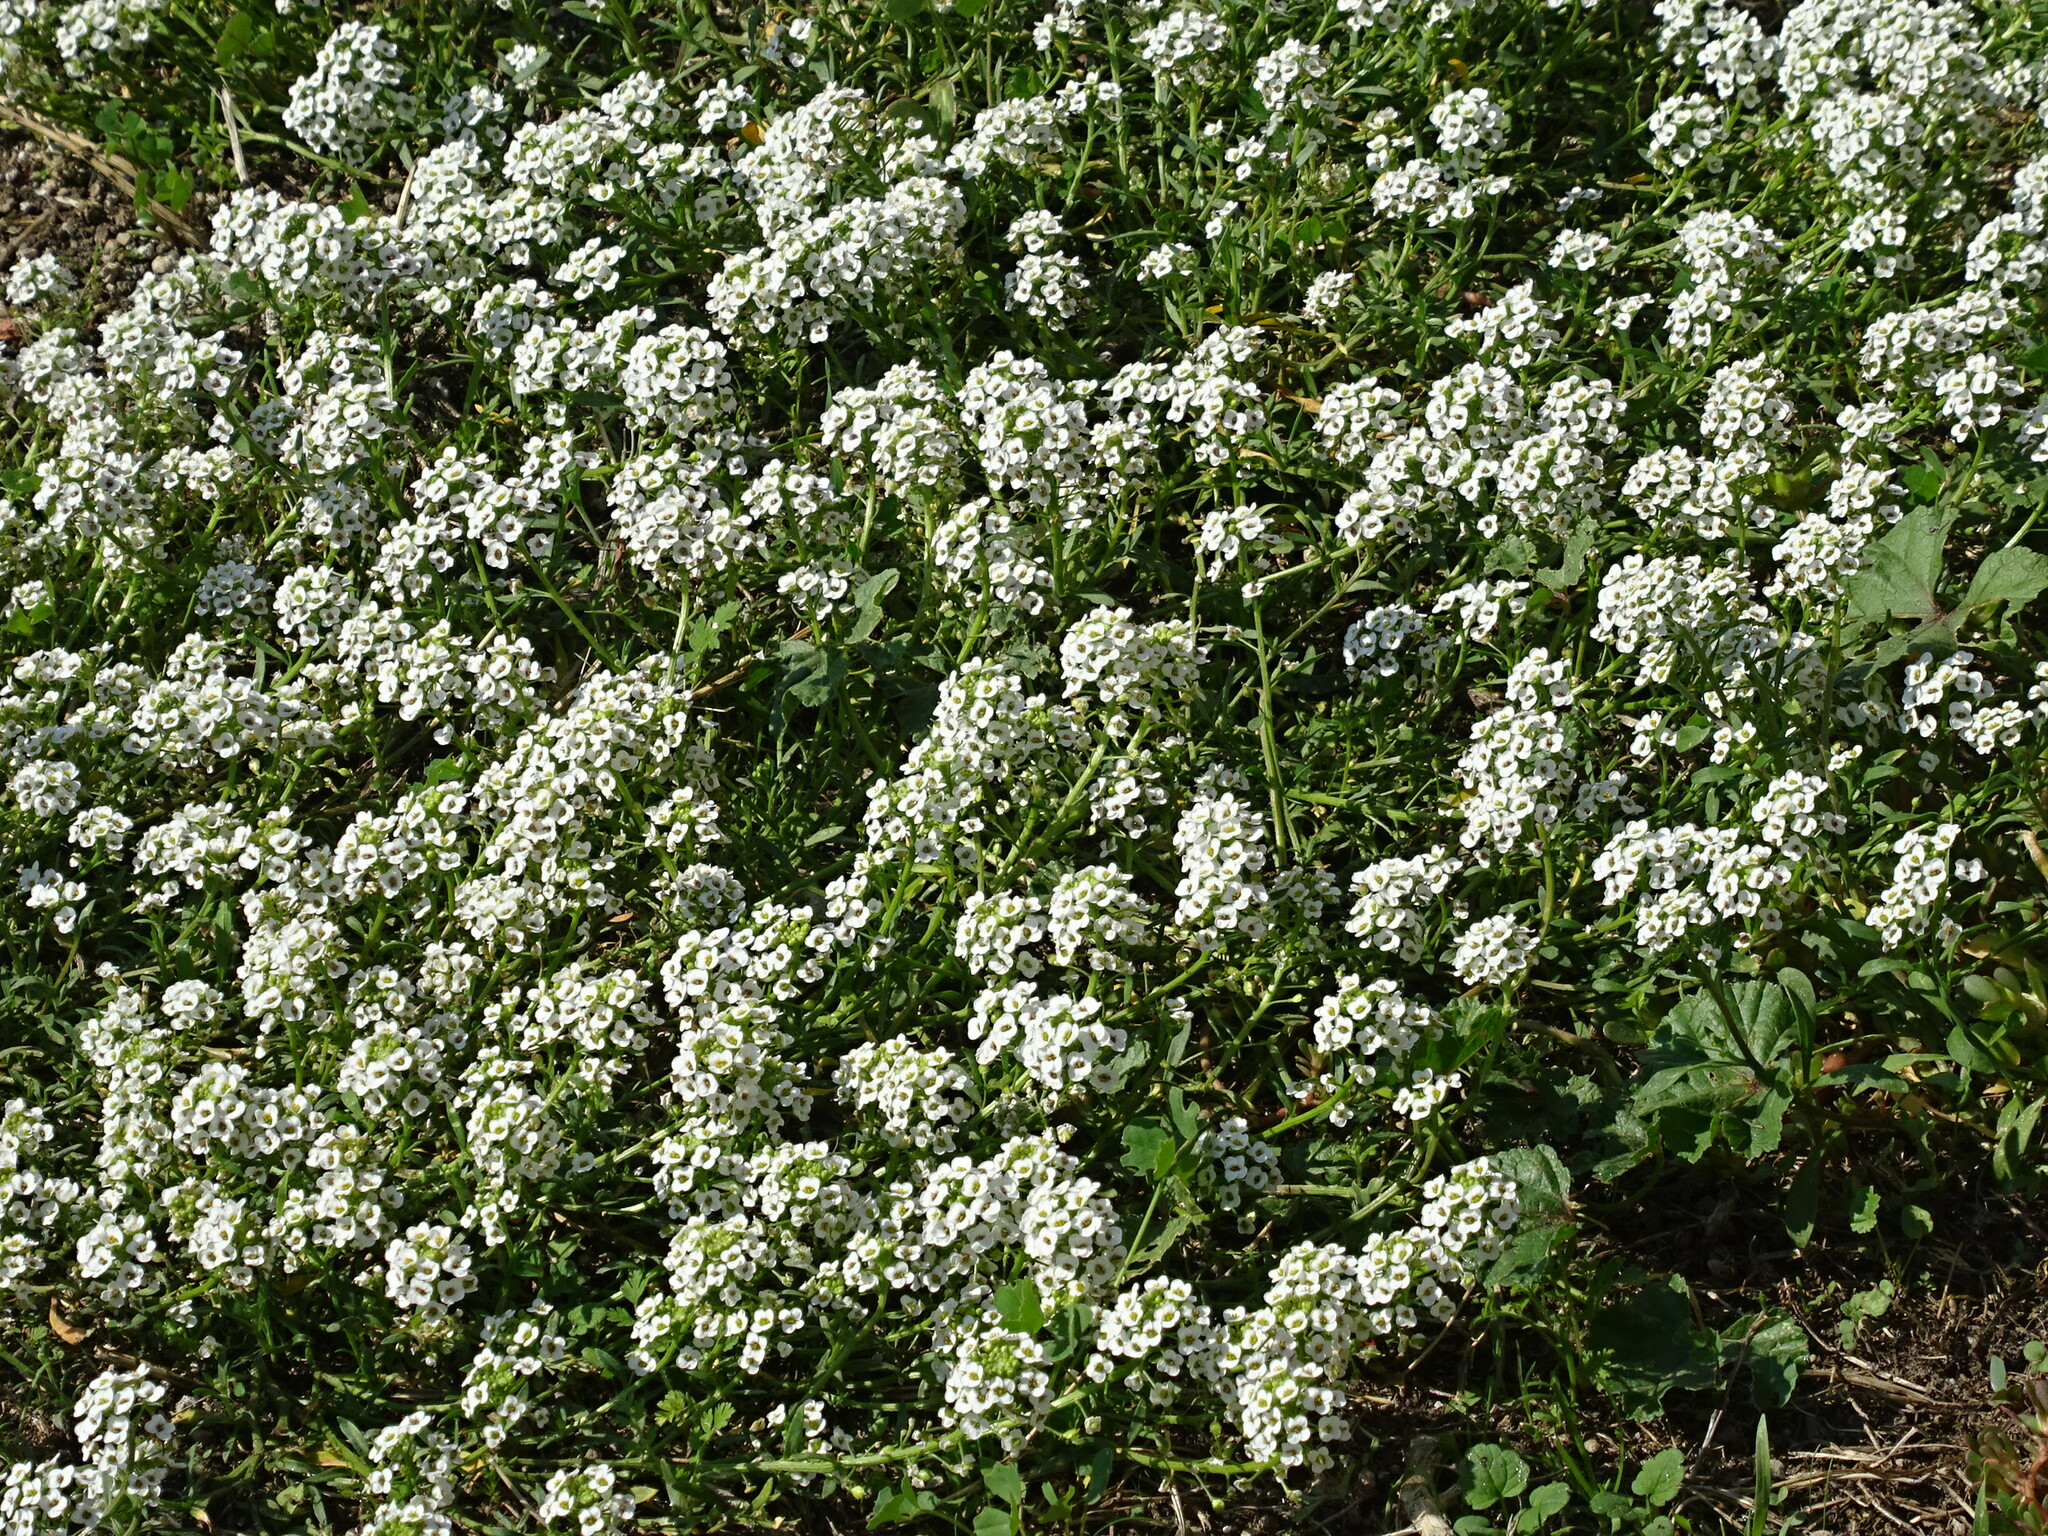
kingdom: Plantae
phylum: Tracheophyta
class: Magnoliopsida
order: Brassicales
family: Brassicaceae
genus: Lobularia
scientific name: Lobularia maritima
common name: Sweet alison
